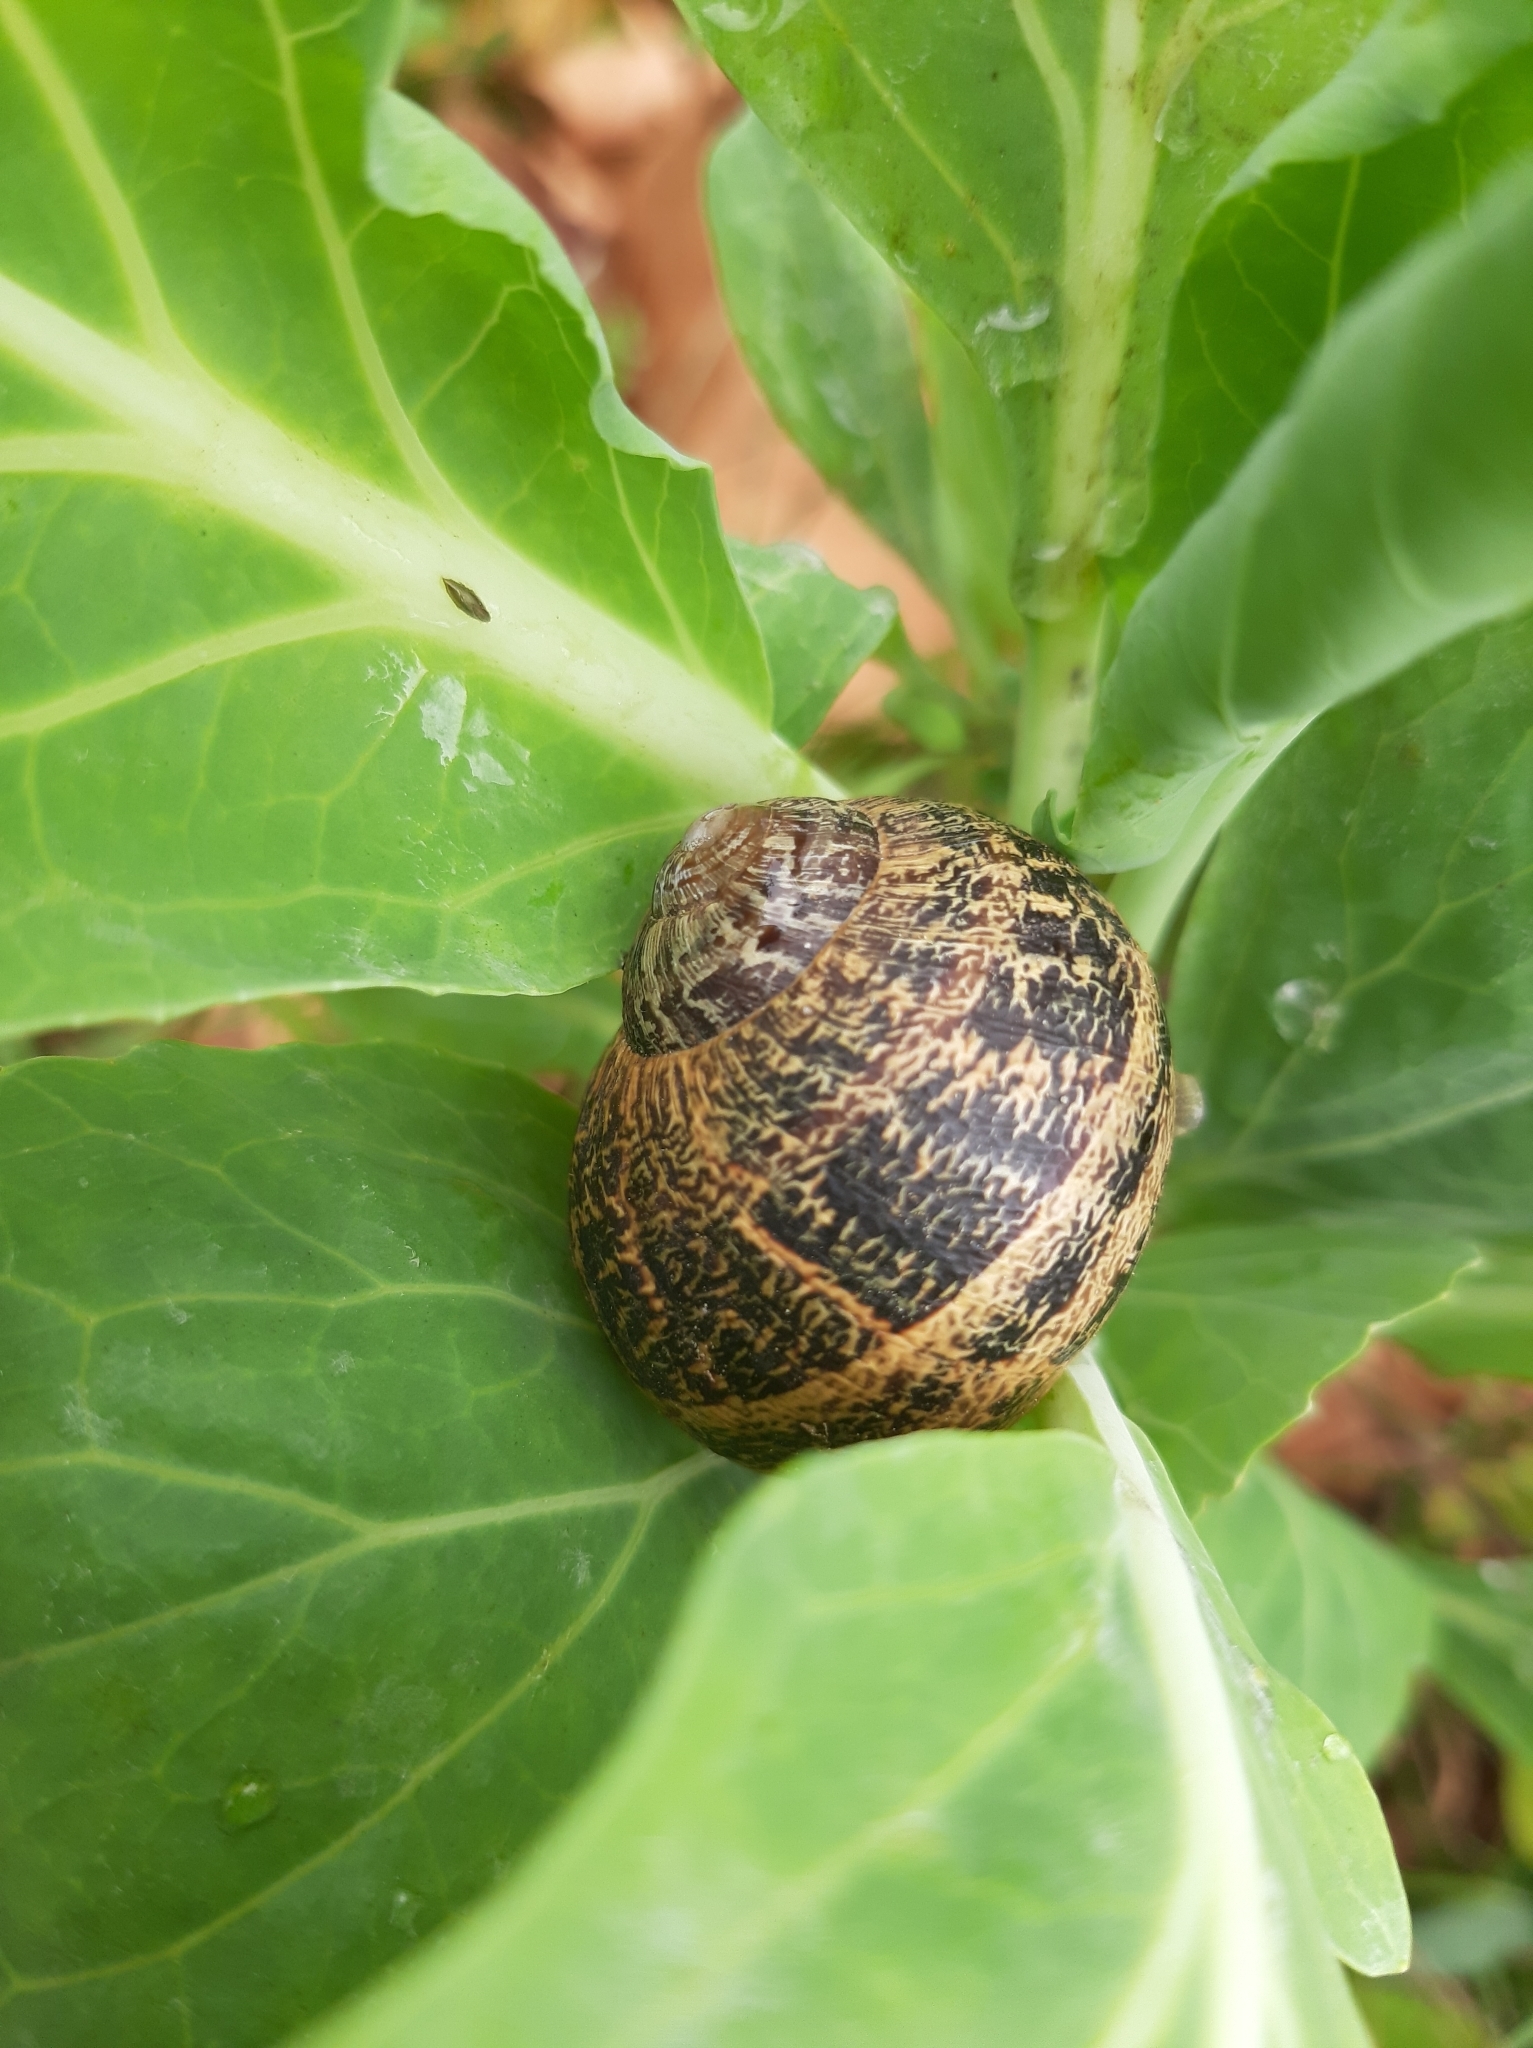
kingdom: Animalia
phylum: Mollusca
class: Gastropoda
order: Stylommatophora
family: Helicidae
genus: Cornu
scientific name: Cornu aspersum
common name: Brown garden snail
